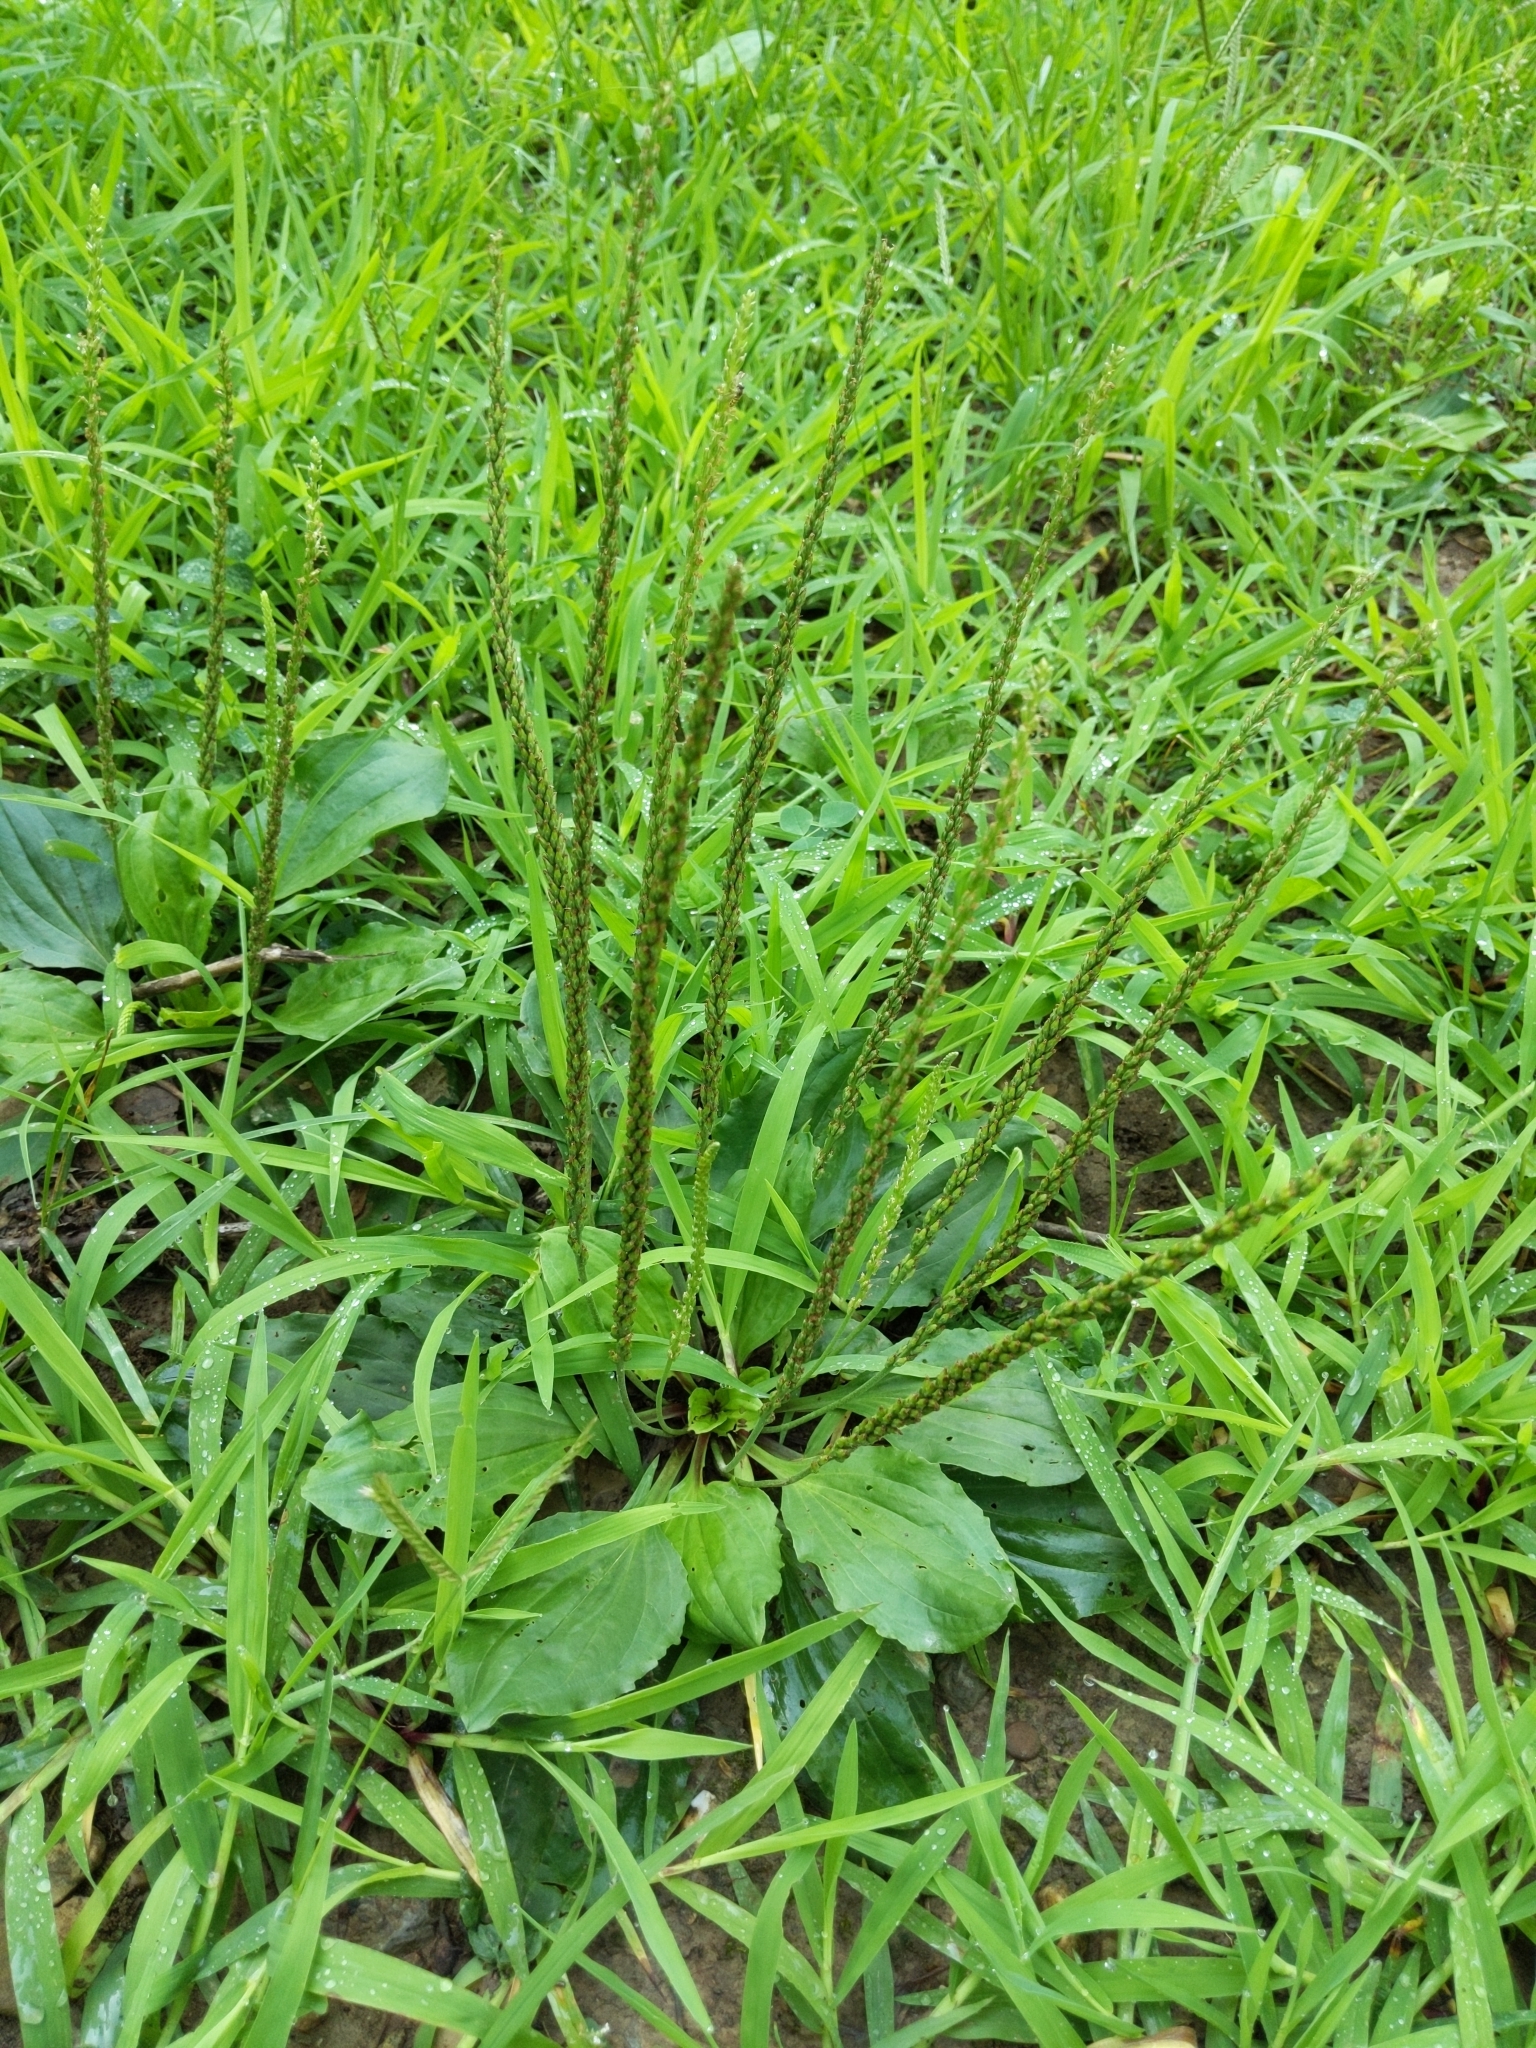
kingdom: Plantae
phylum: Tracheophyta
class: Magnoliopsida
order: Lamiales
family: Plantaginaceae
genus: Plantago
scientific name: Plantago rugelii
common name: American plantain
